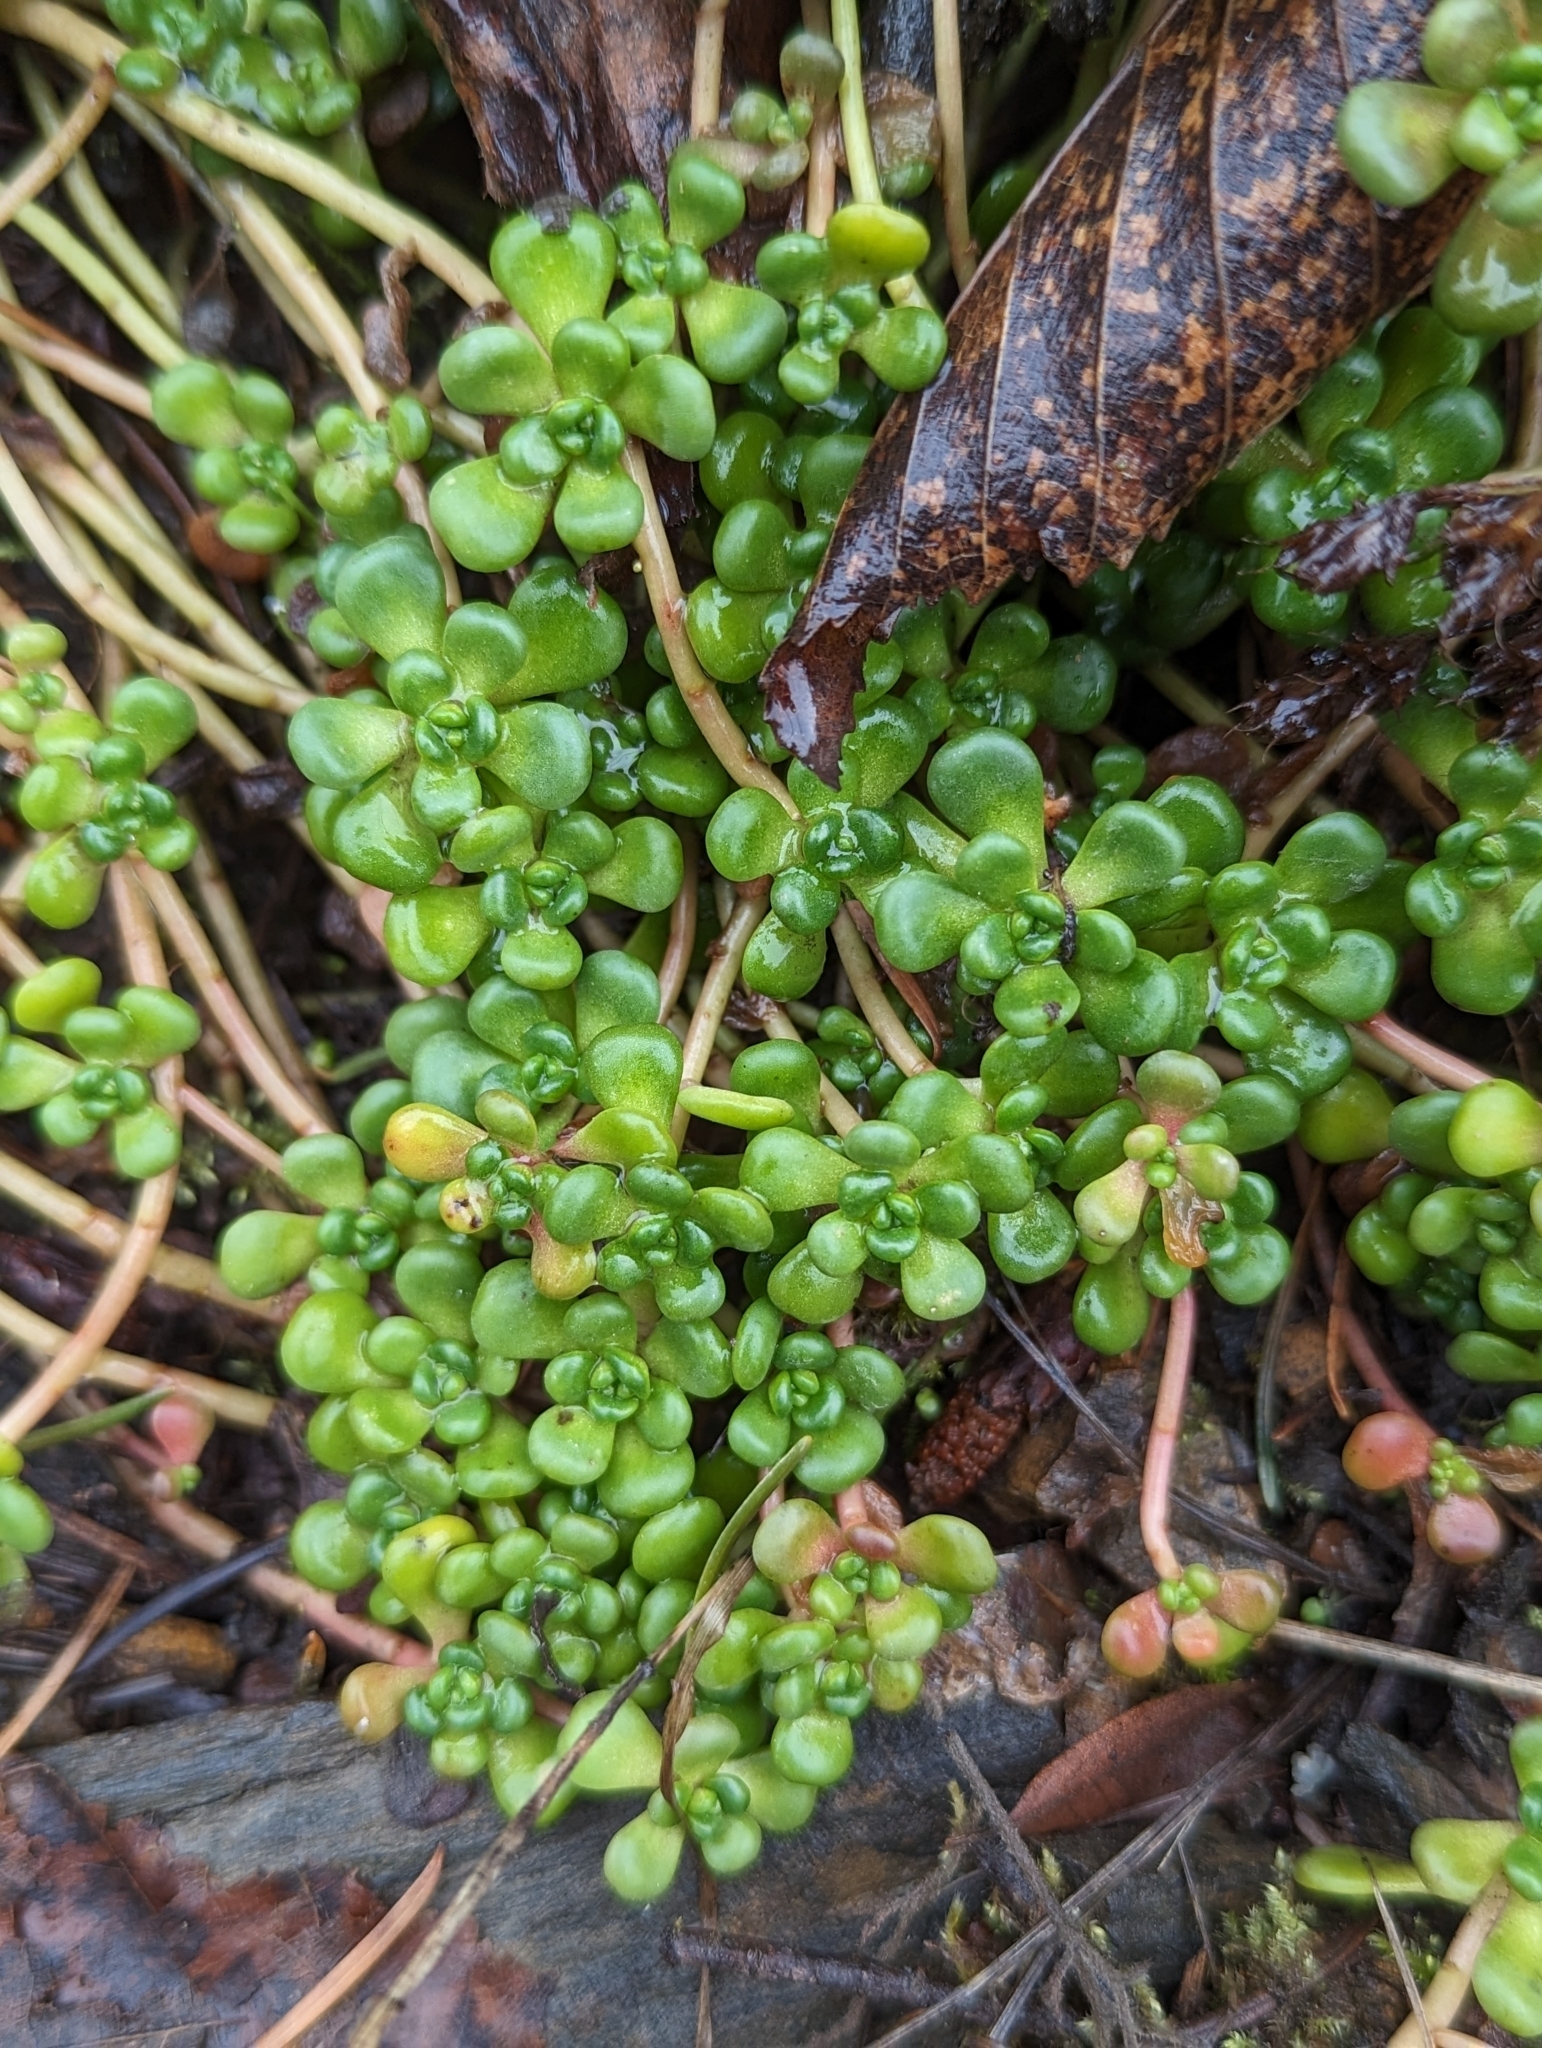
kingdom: Plantae
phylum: Tracheophyta
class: Magnoliopsida
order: Saxifragales
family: Crassulaceae
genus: Sedum
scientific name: Sedum oreganum
